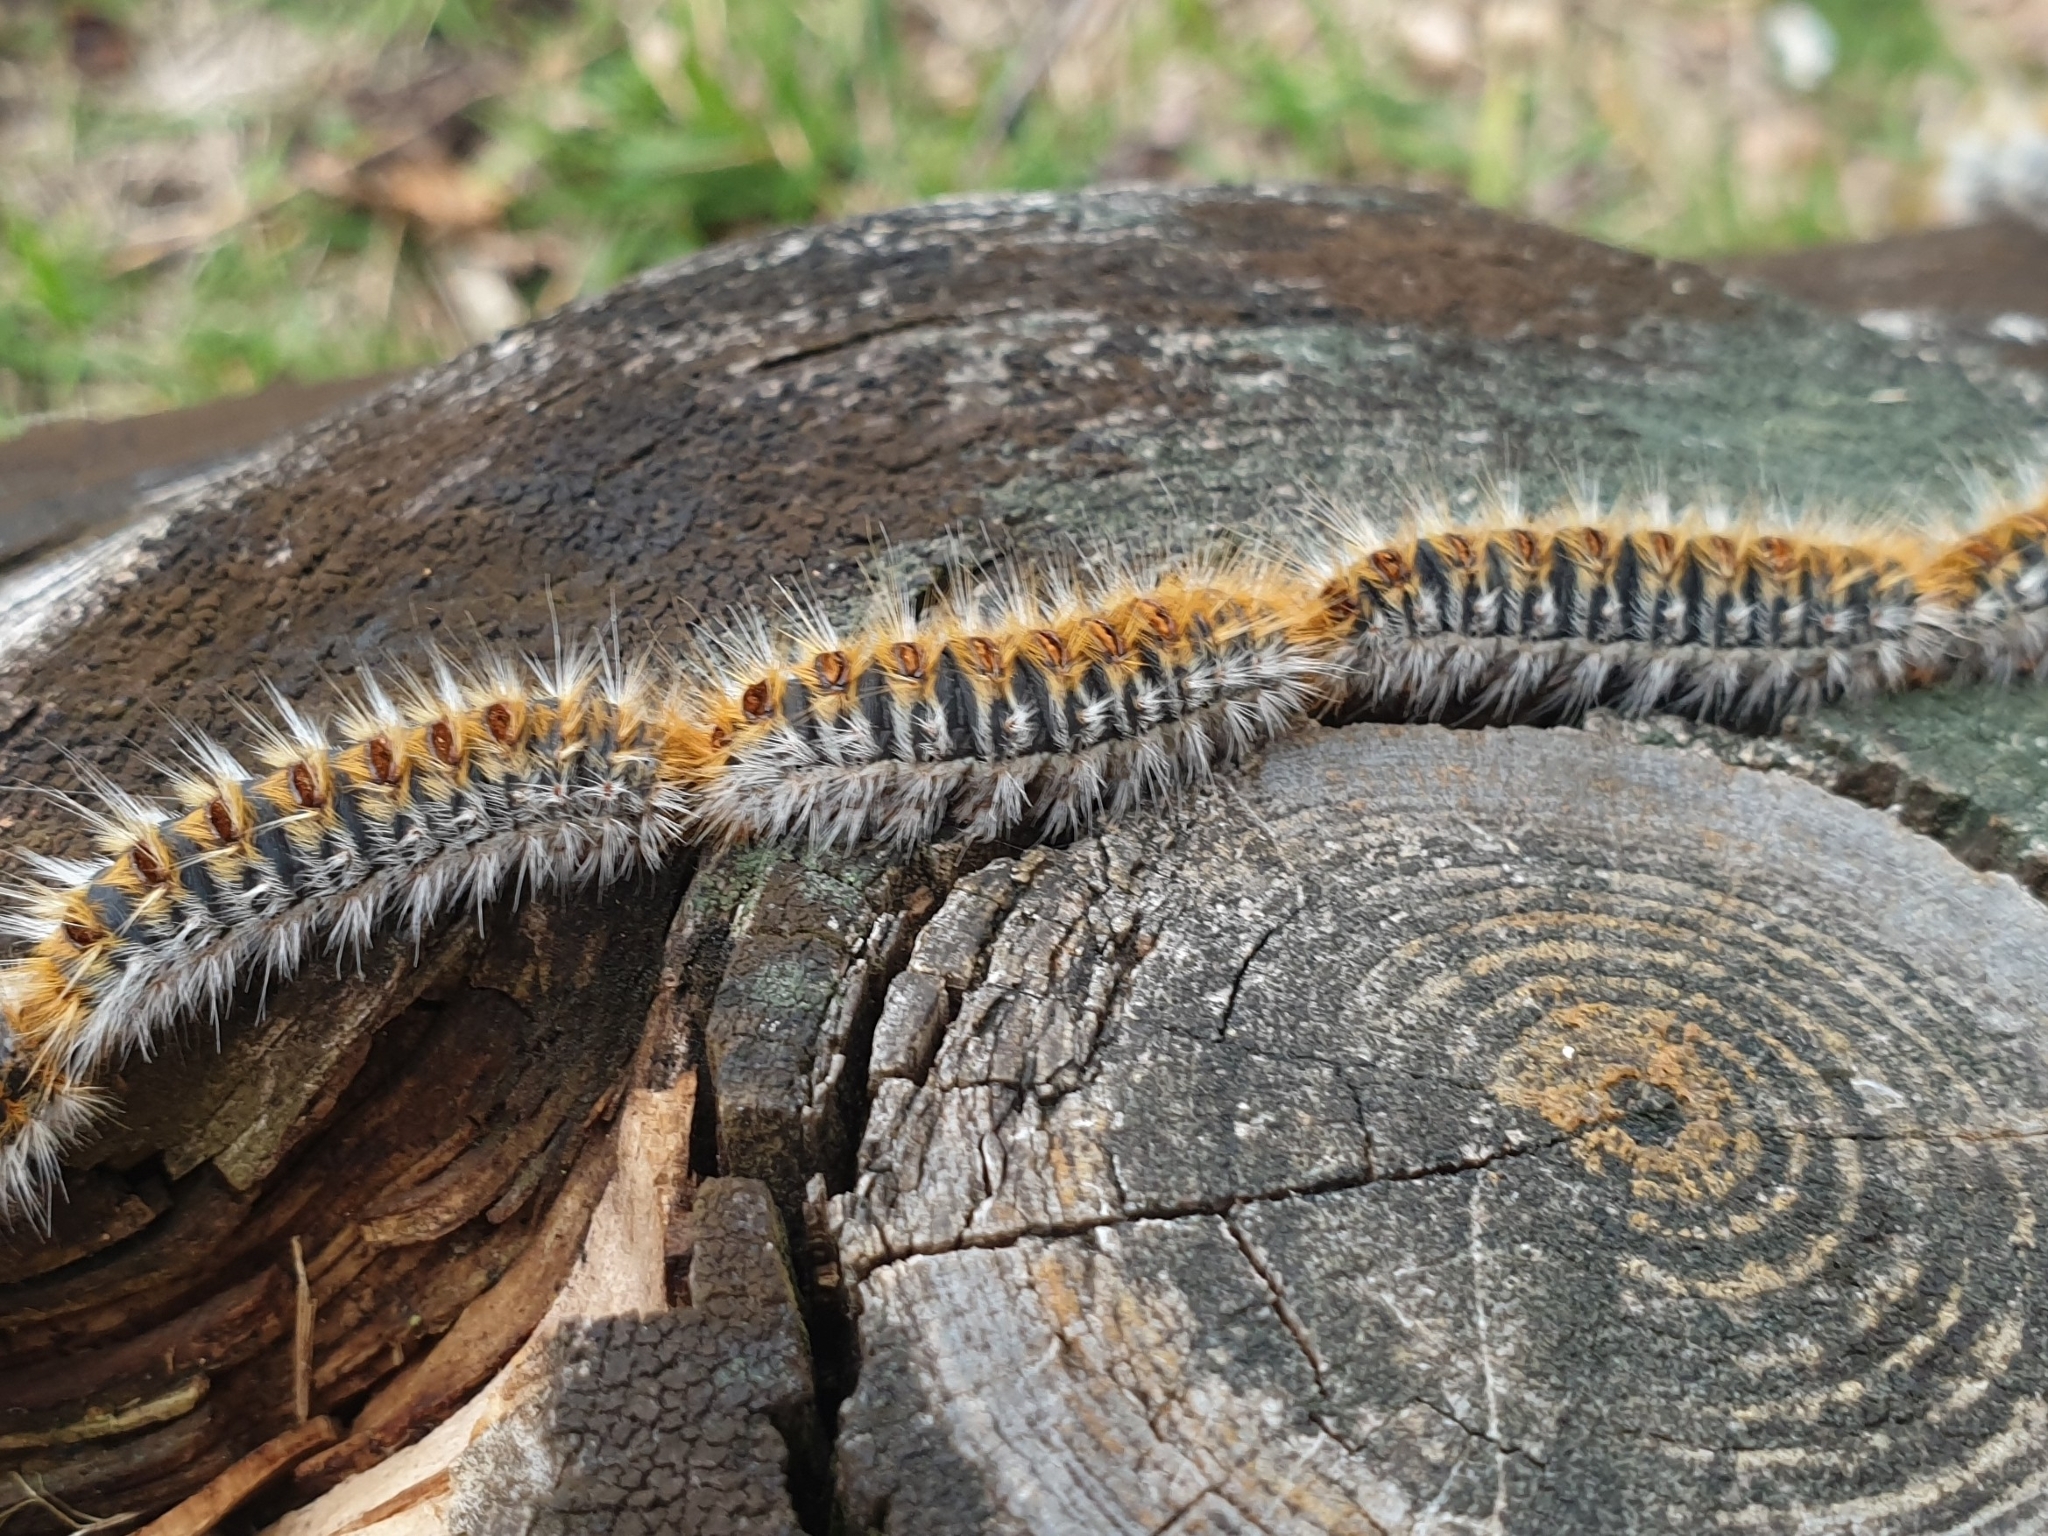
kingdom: Animalia
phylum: Arthropoda
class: Insecta
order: Lepidoptera
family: Notodontidae
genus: Thaumetopoea
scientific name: Thaumetopoea pityocampa
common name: Pine processionary
